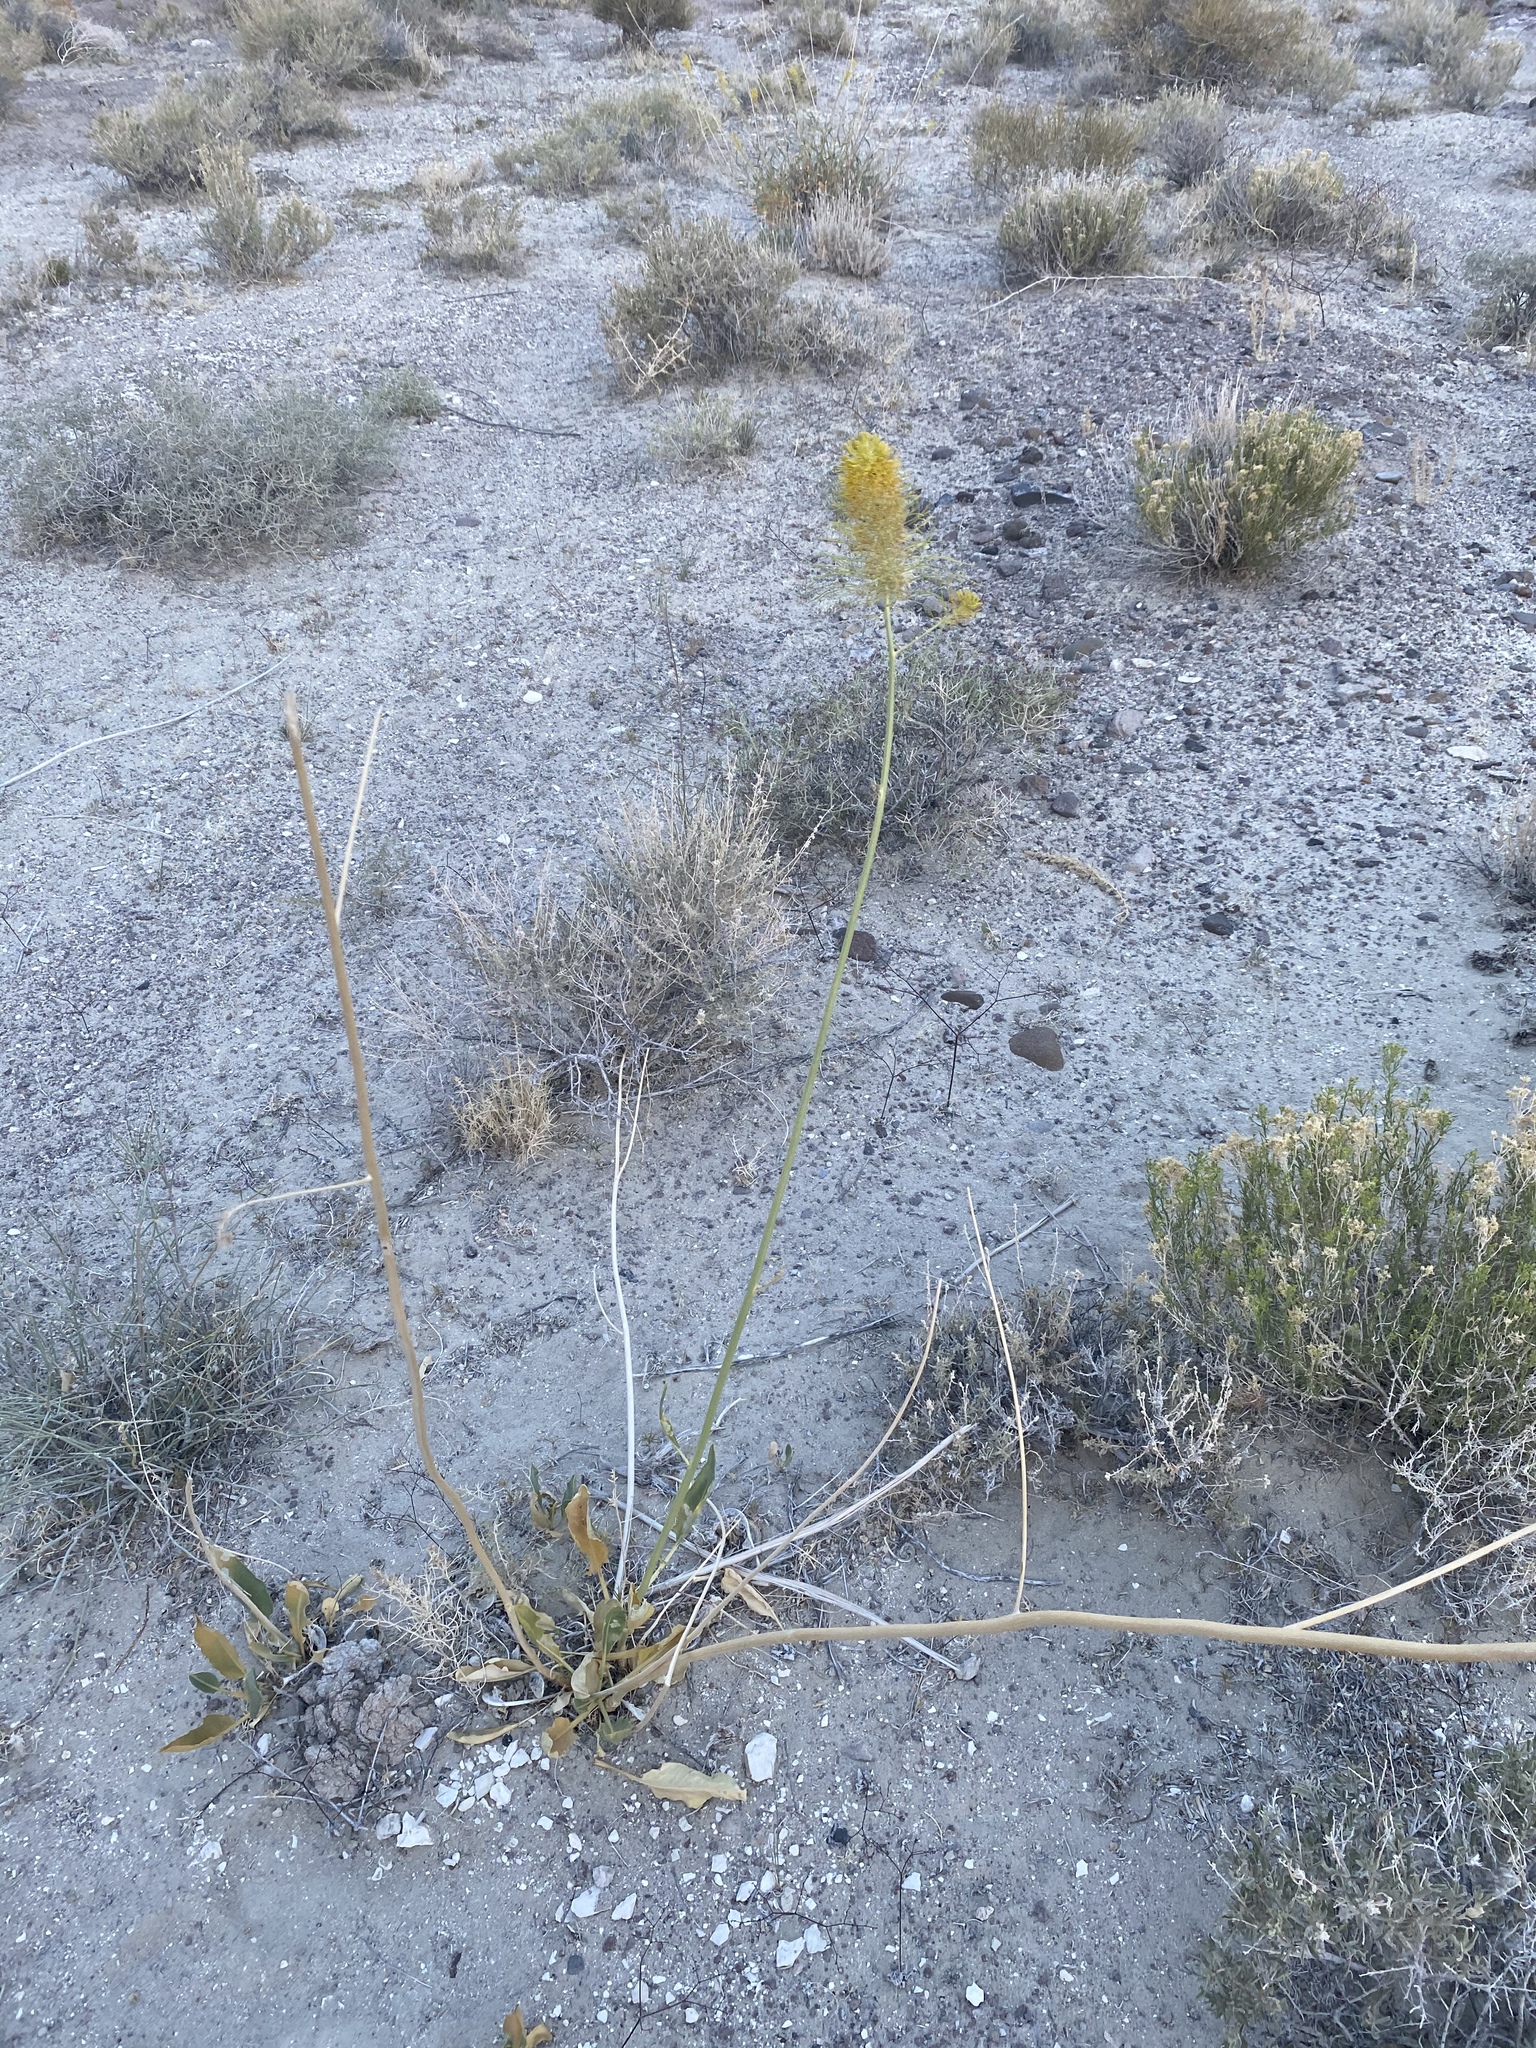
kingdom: Plantae
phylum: Tracheophyta
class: Magnoliopsida
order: Brassicales
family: Brassicaceae
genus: Stanleya
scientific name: Stanleya elata
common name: Panamint prince's plume
